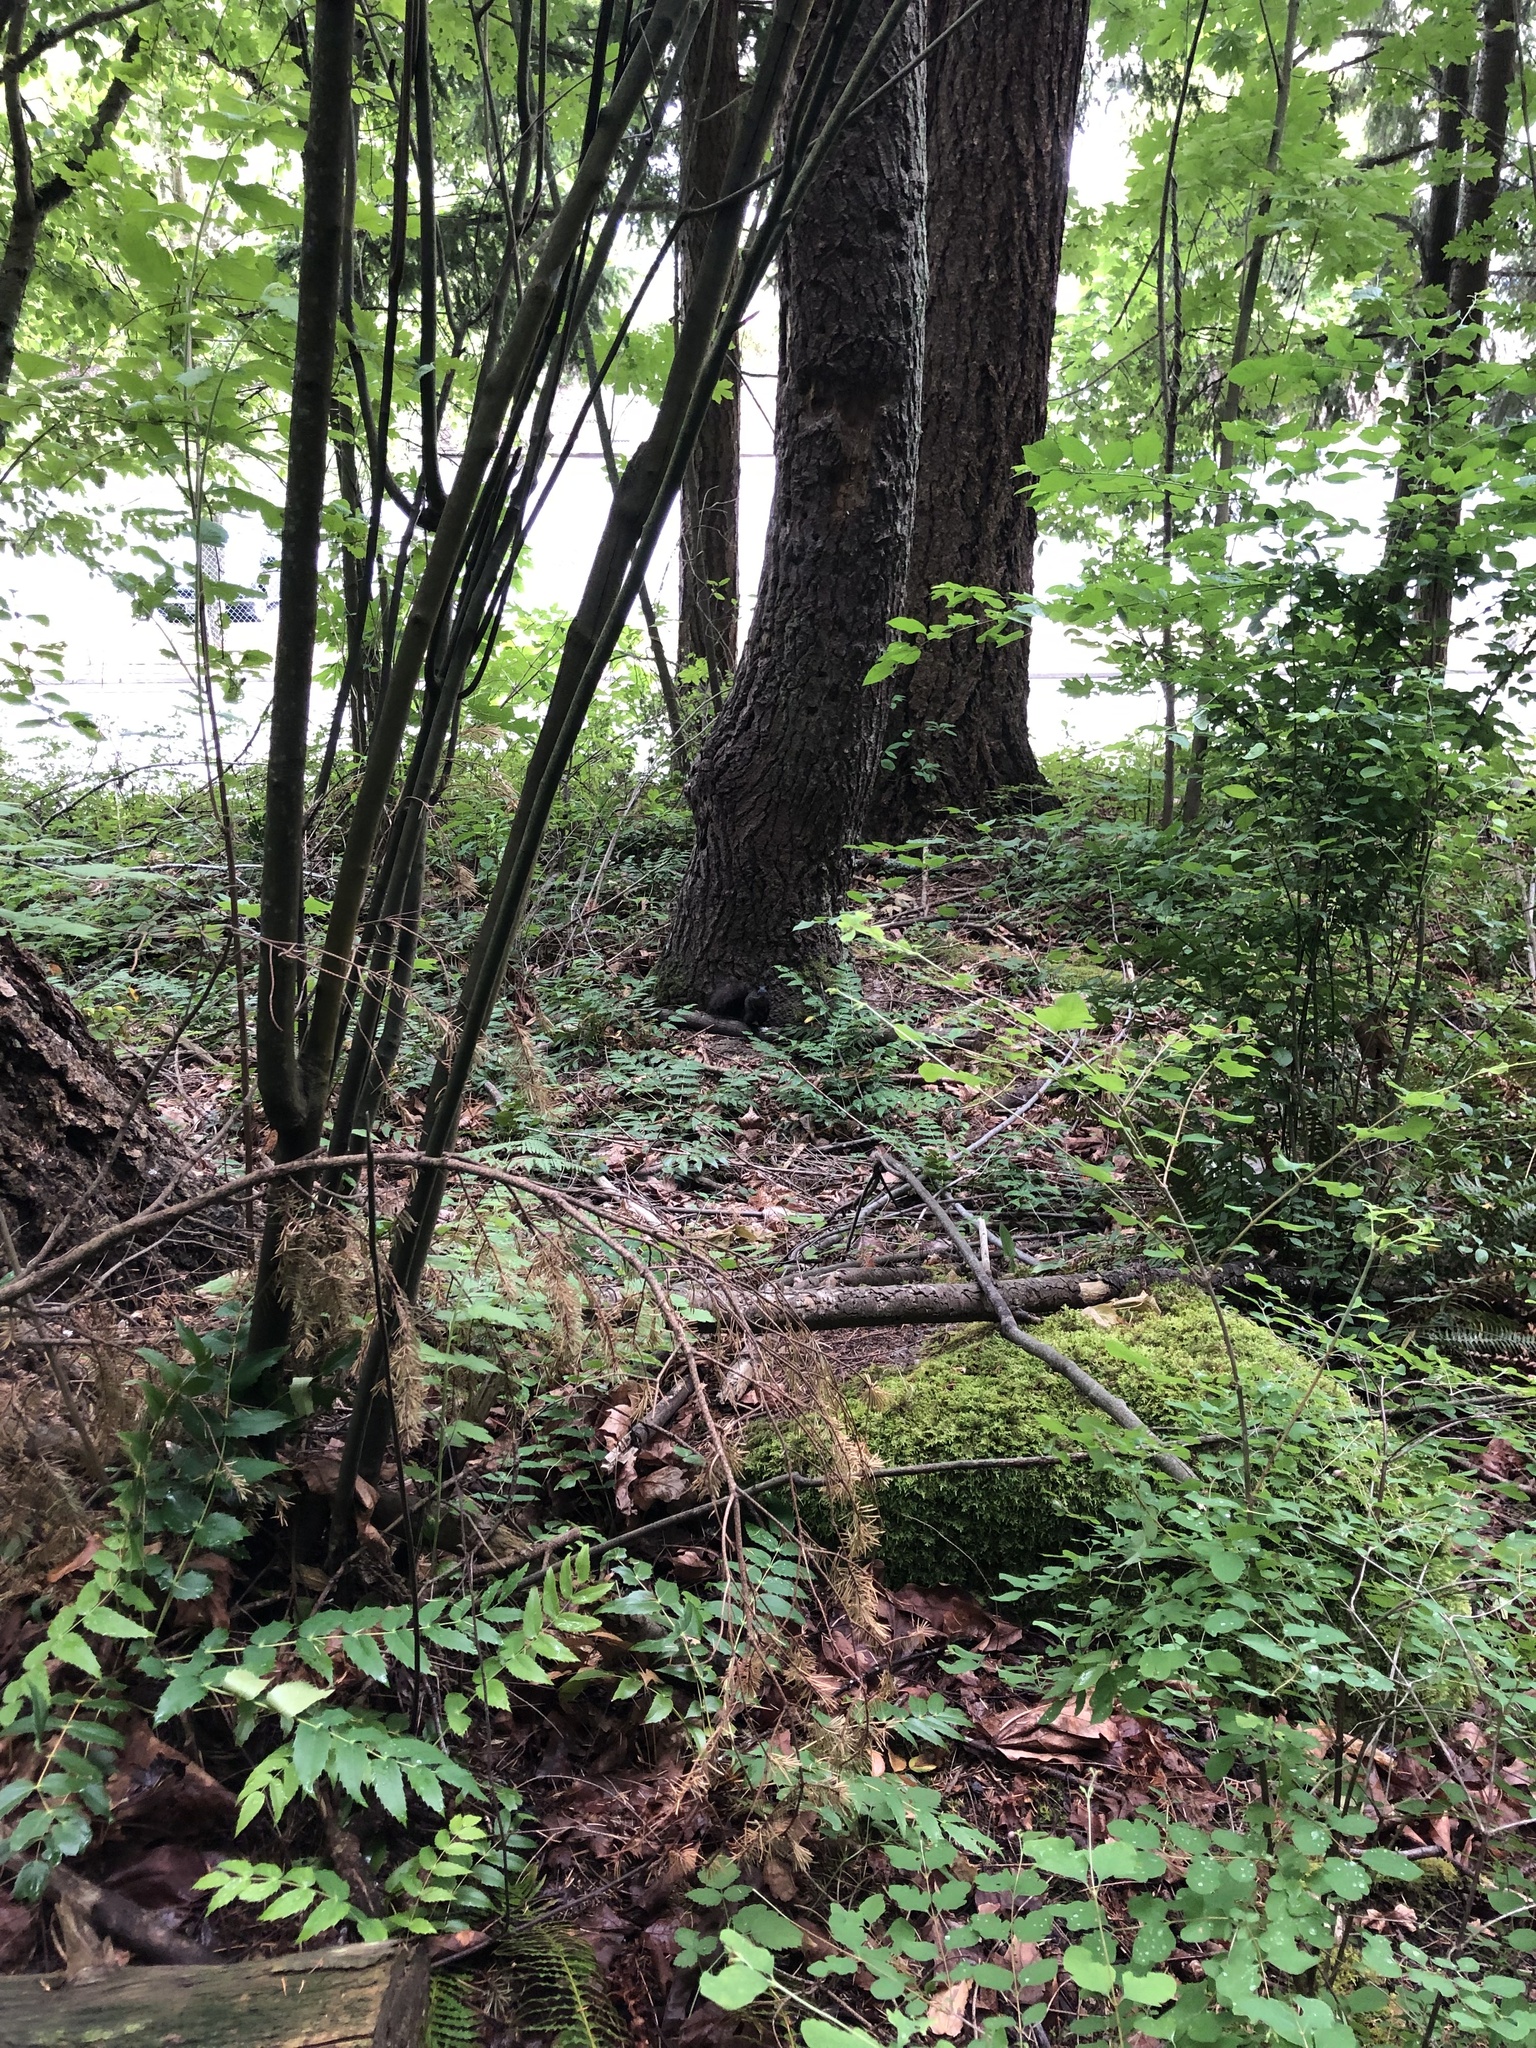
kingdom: Animalia
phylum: Chordata
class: Mammalia
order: Rodentia
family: Sciuridae
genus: Sciurus
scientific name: Sciurus carolinensis
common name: Eastern gray squirrel
